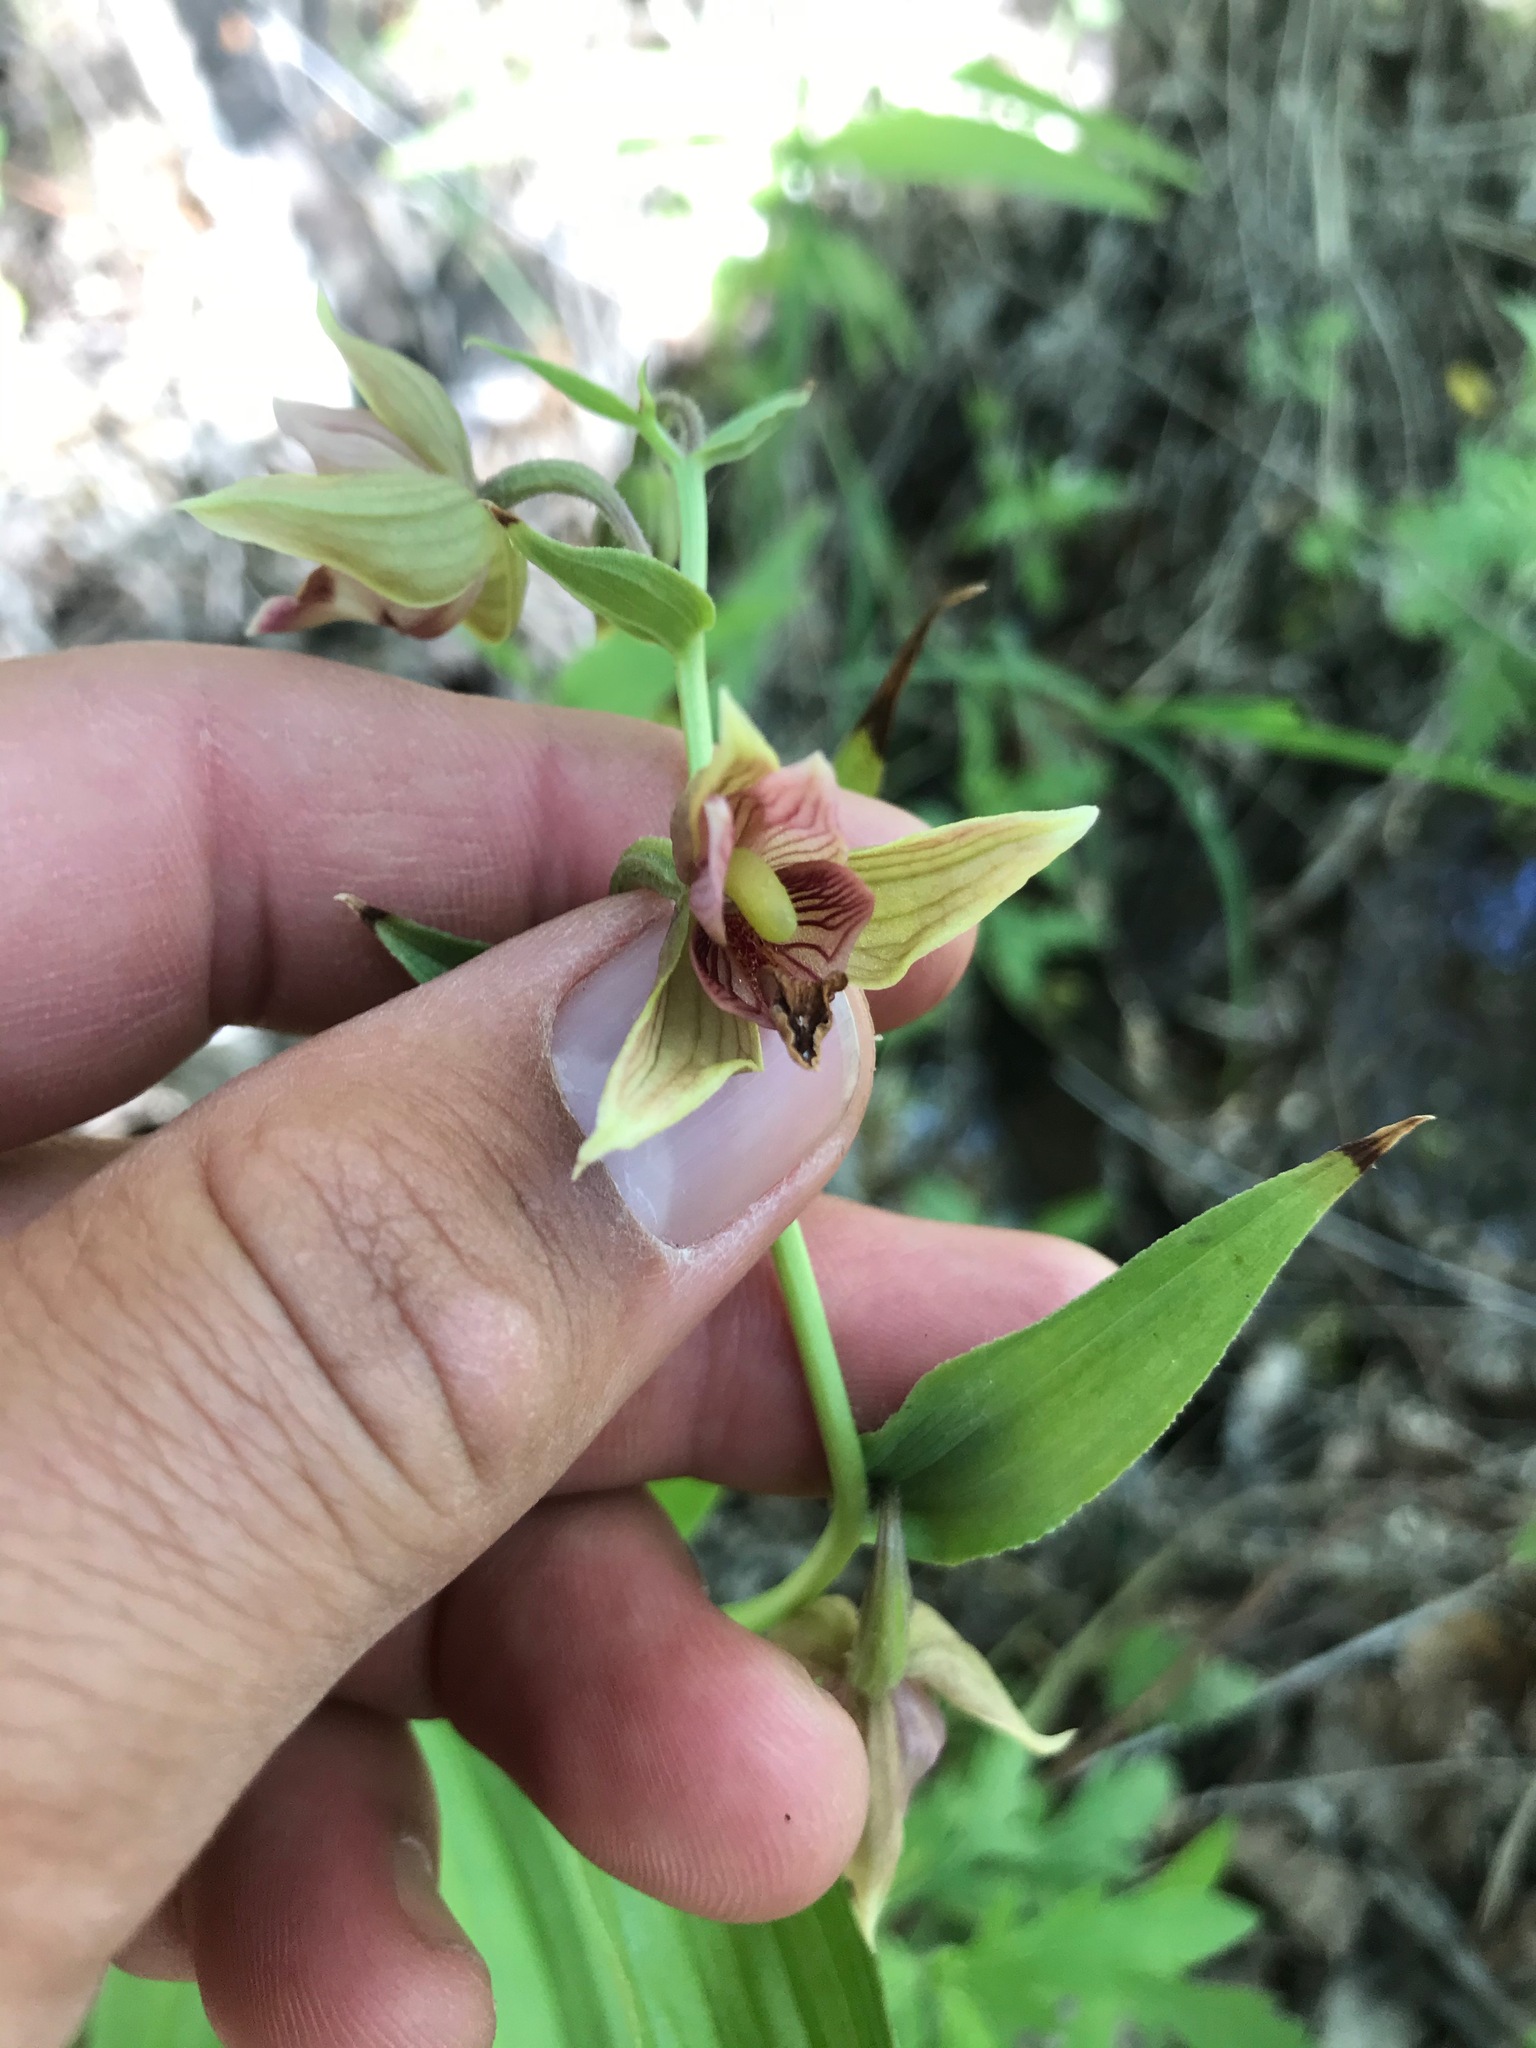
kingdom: Plantae
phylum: Tracheophyta
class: Liliopsida
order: Asparagales
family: Orchidaceae
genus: Epipactis
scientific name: Epipactis gigantea
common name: Chatterbox
